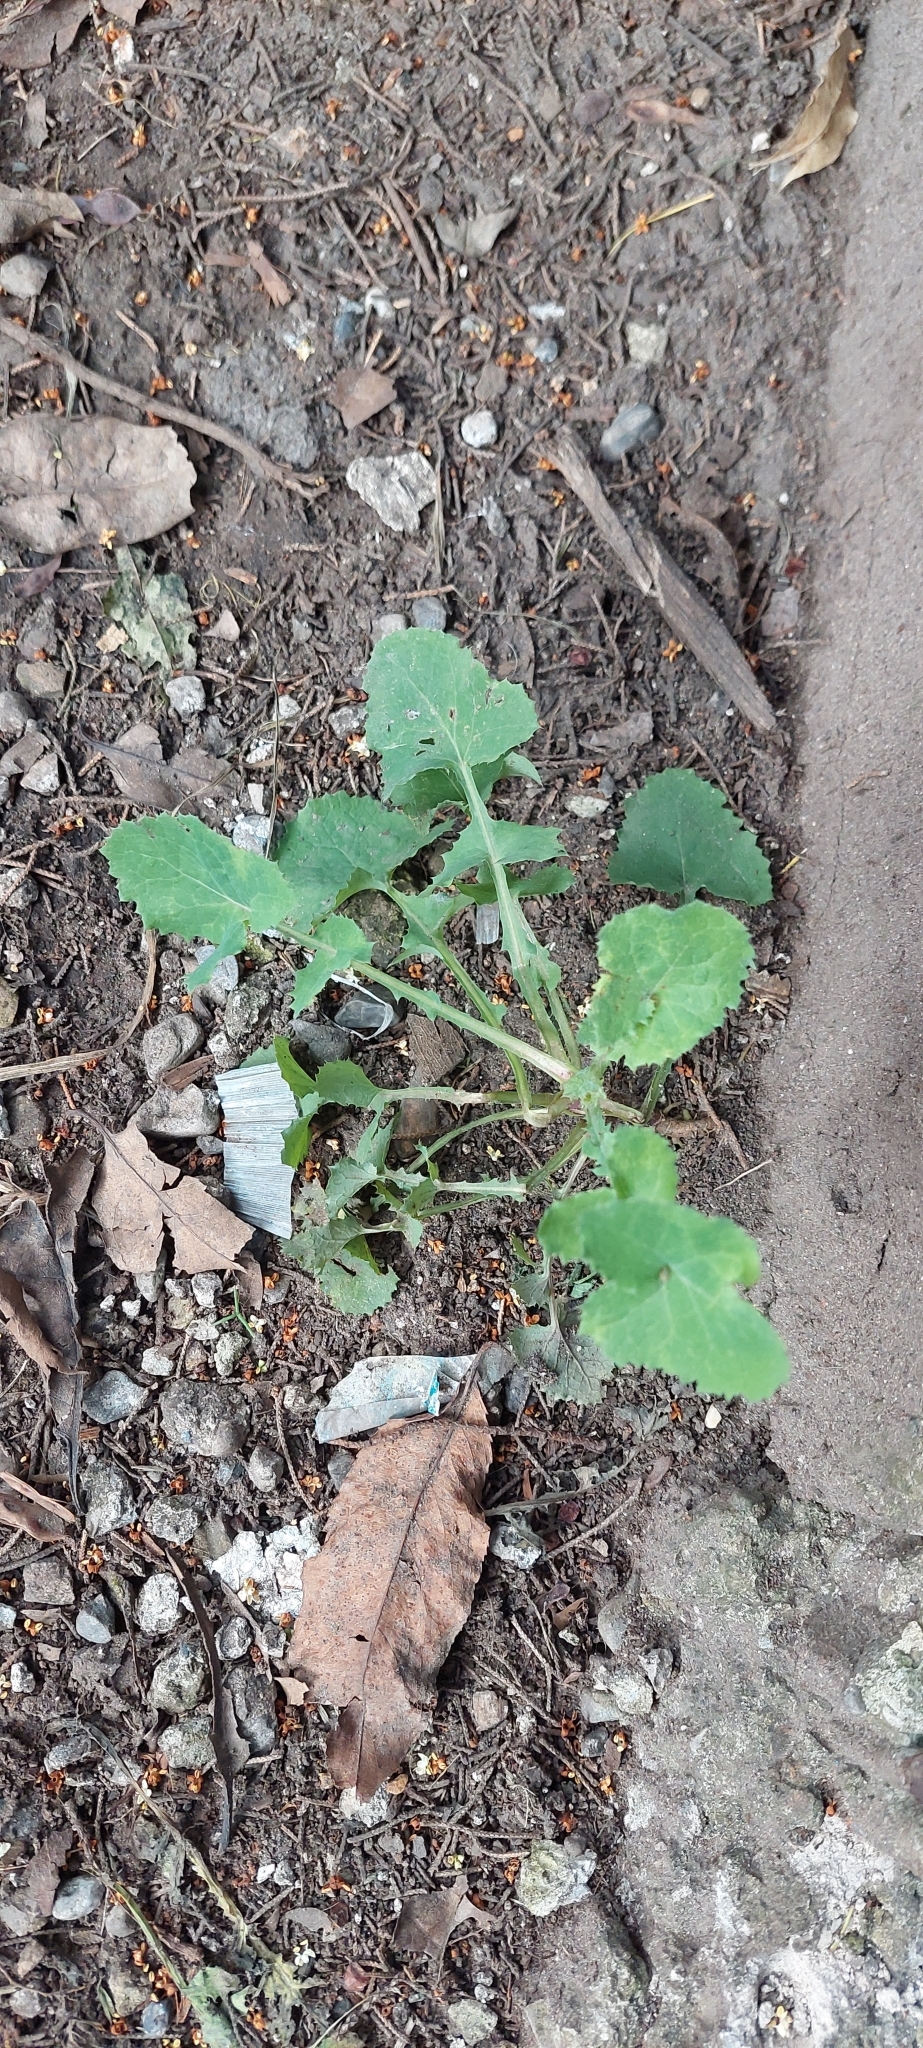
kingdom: Plantae
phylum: Tracheophyta
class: Magnoliopsida
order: Asterales
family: Asteraceae
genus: Sonchus
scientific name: Sonchus oleraceus
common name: Common sowthistle
